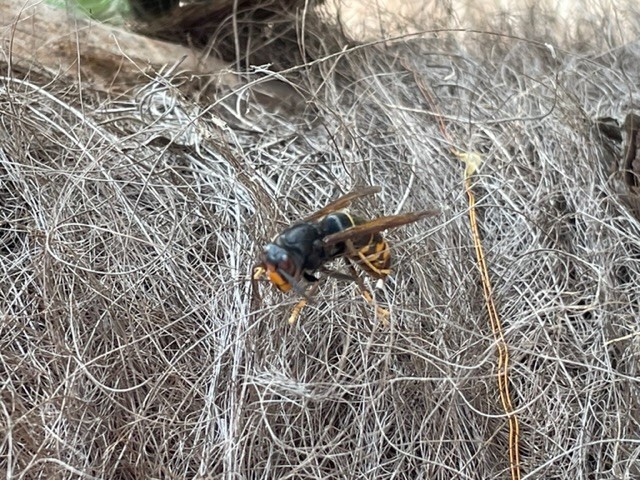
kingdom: Animalia
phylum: Arthropoda
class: Insecta
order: Hymenoptera
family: Vespidae
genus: Vespa
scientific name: Vespa velutina
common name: Asian hornet
